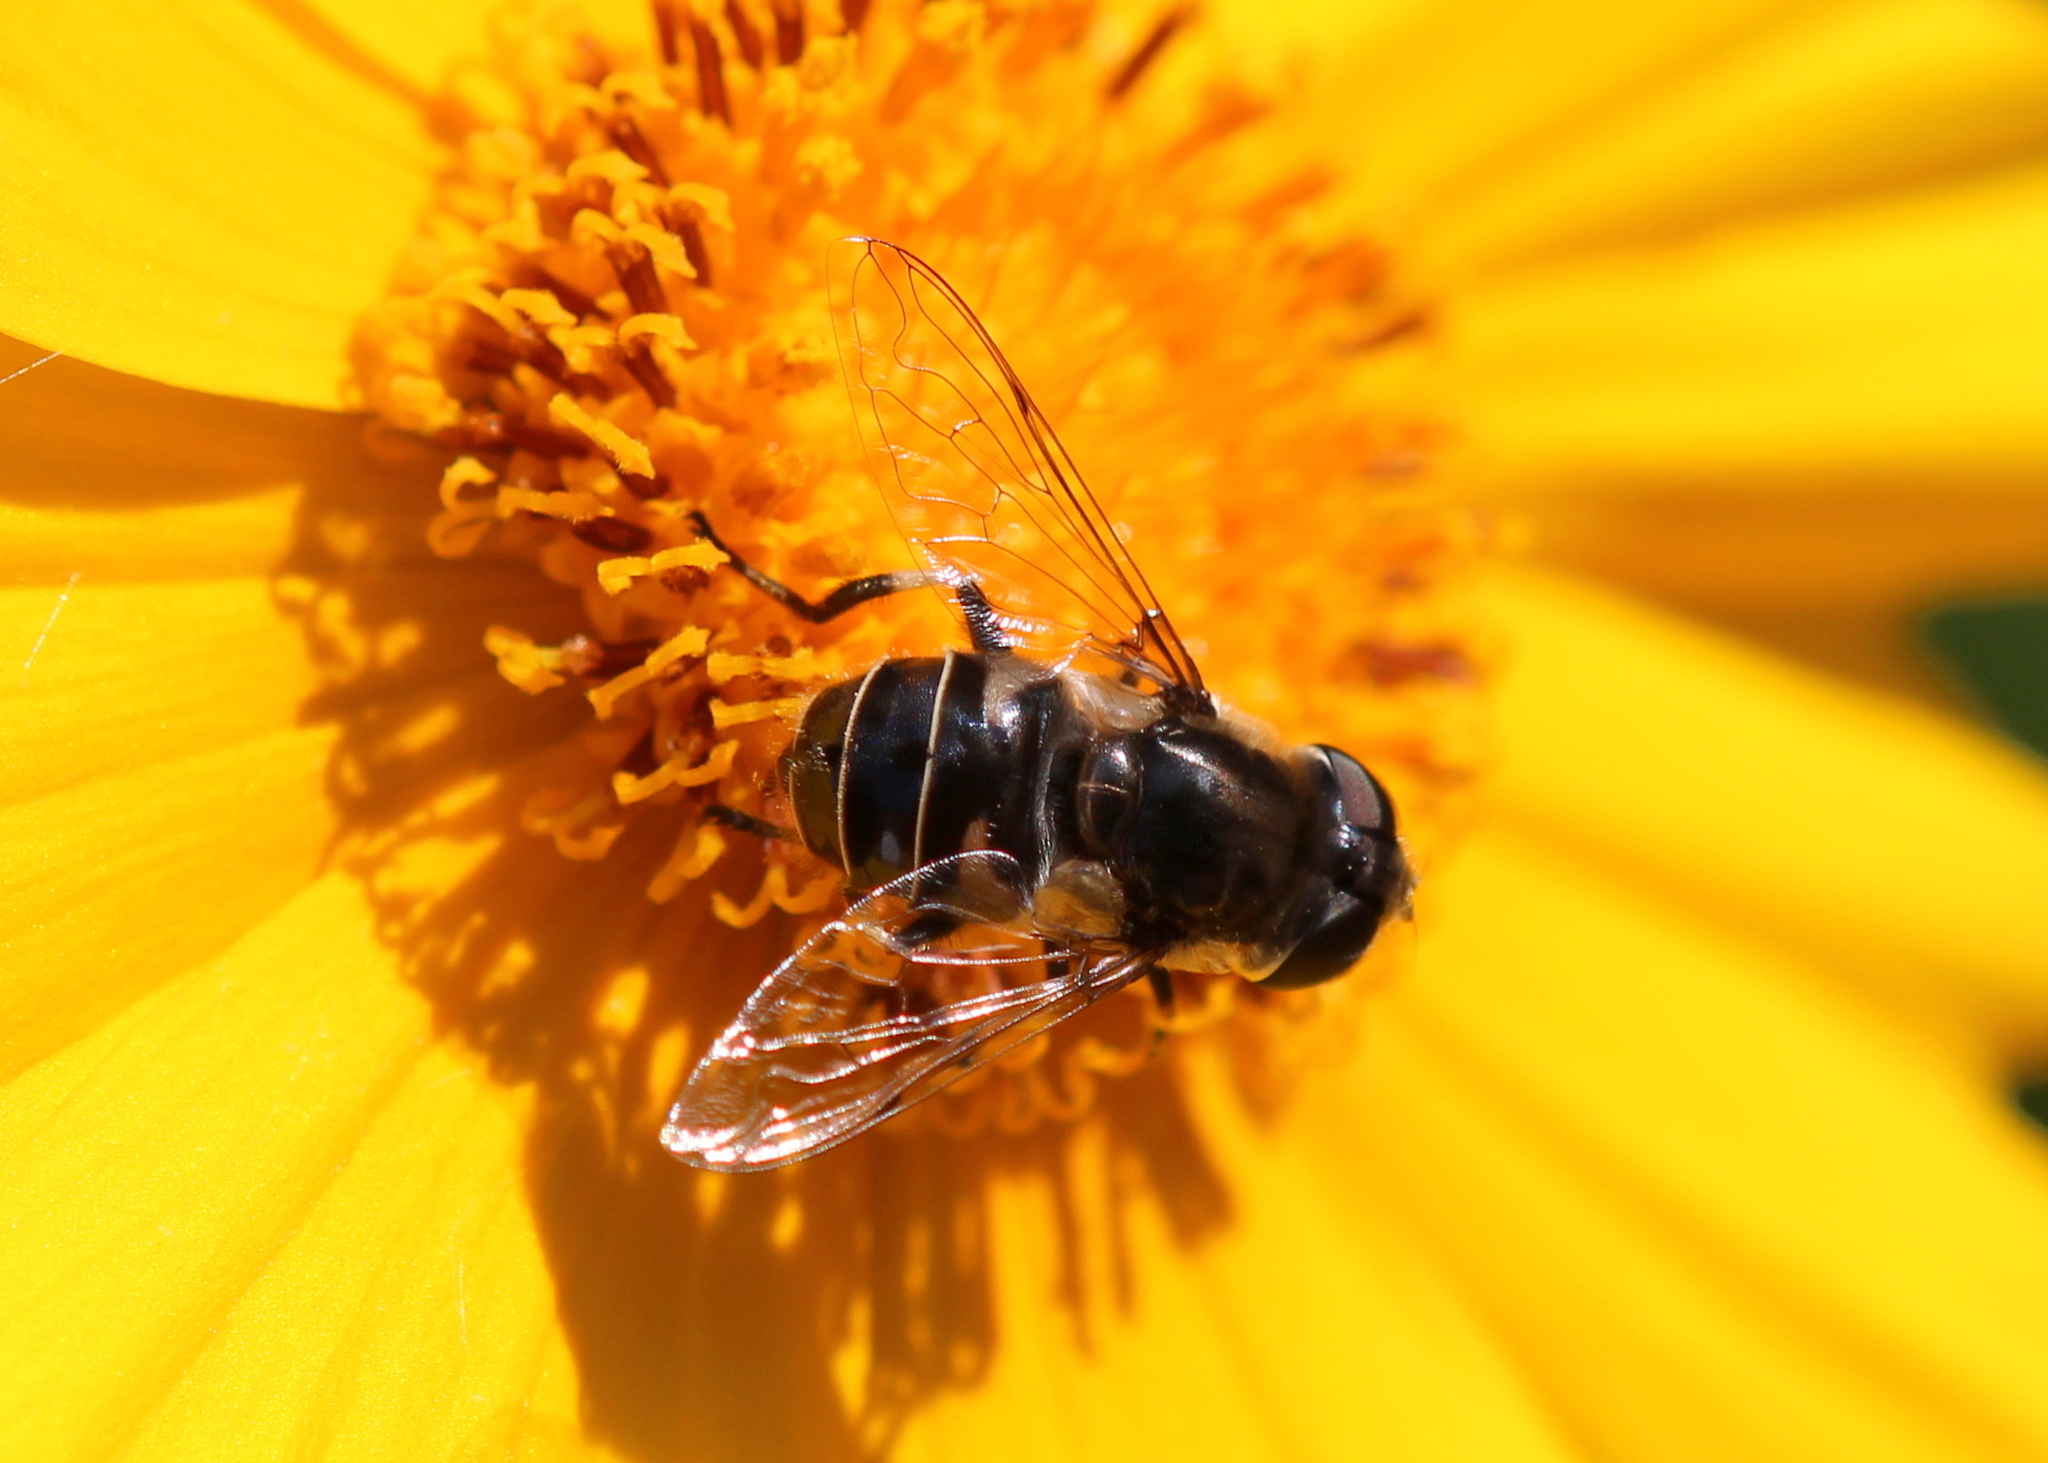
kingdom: Animalia
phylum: Arthropoda
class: Insecta
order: Diptera
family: Syrphidae
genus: Eristalis
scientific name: Eristalis dimidiata
